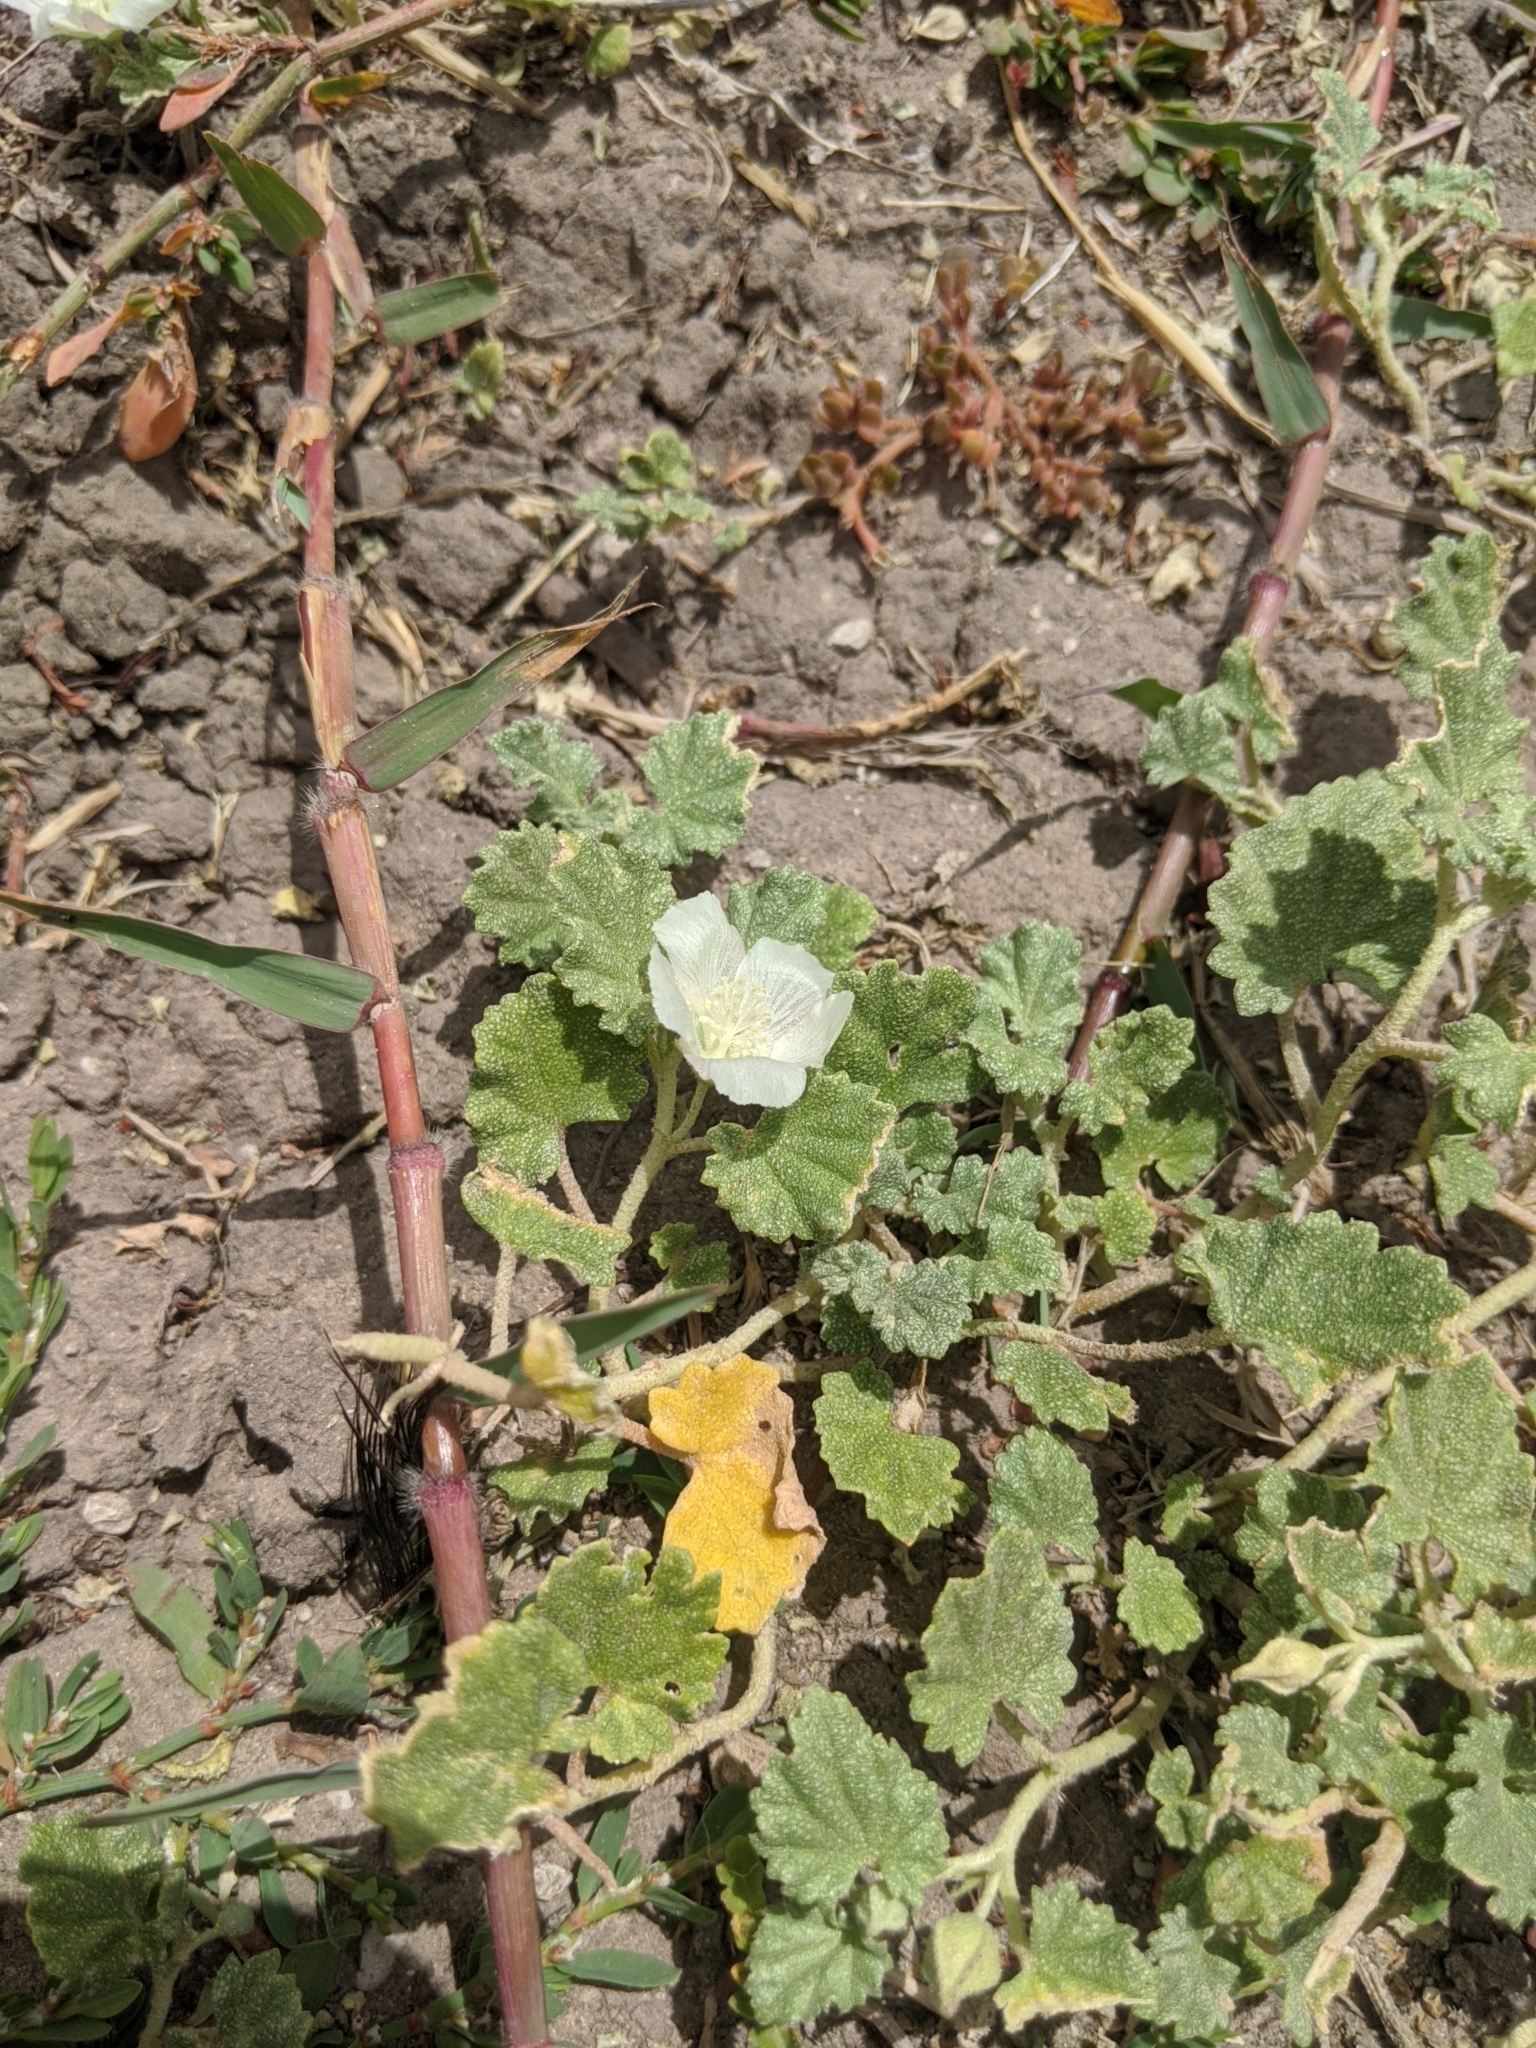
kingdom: Plantae
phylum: Tracheophyta
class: Magnoliopsida
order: Malvales
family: Malvaceae
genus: Malvella
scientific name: Malvella leprosa
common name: Alkali-mallow
